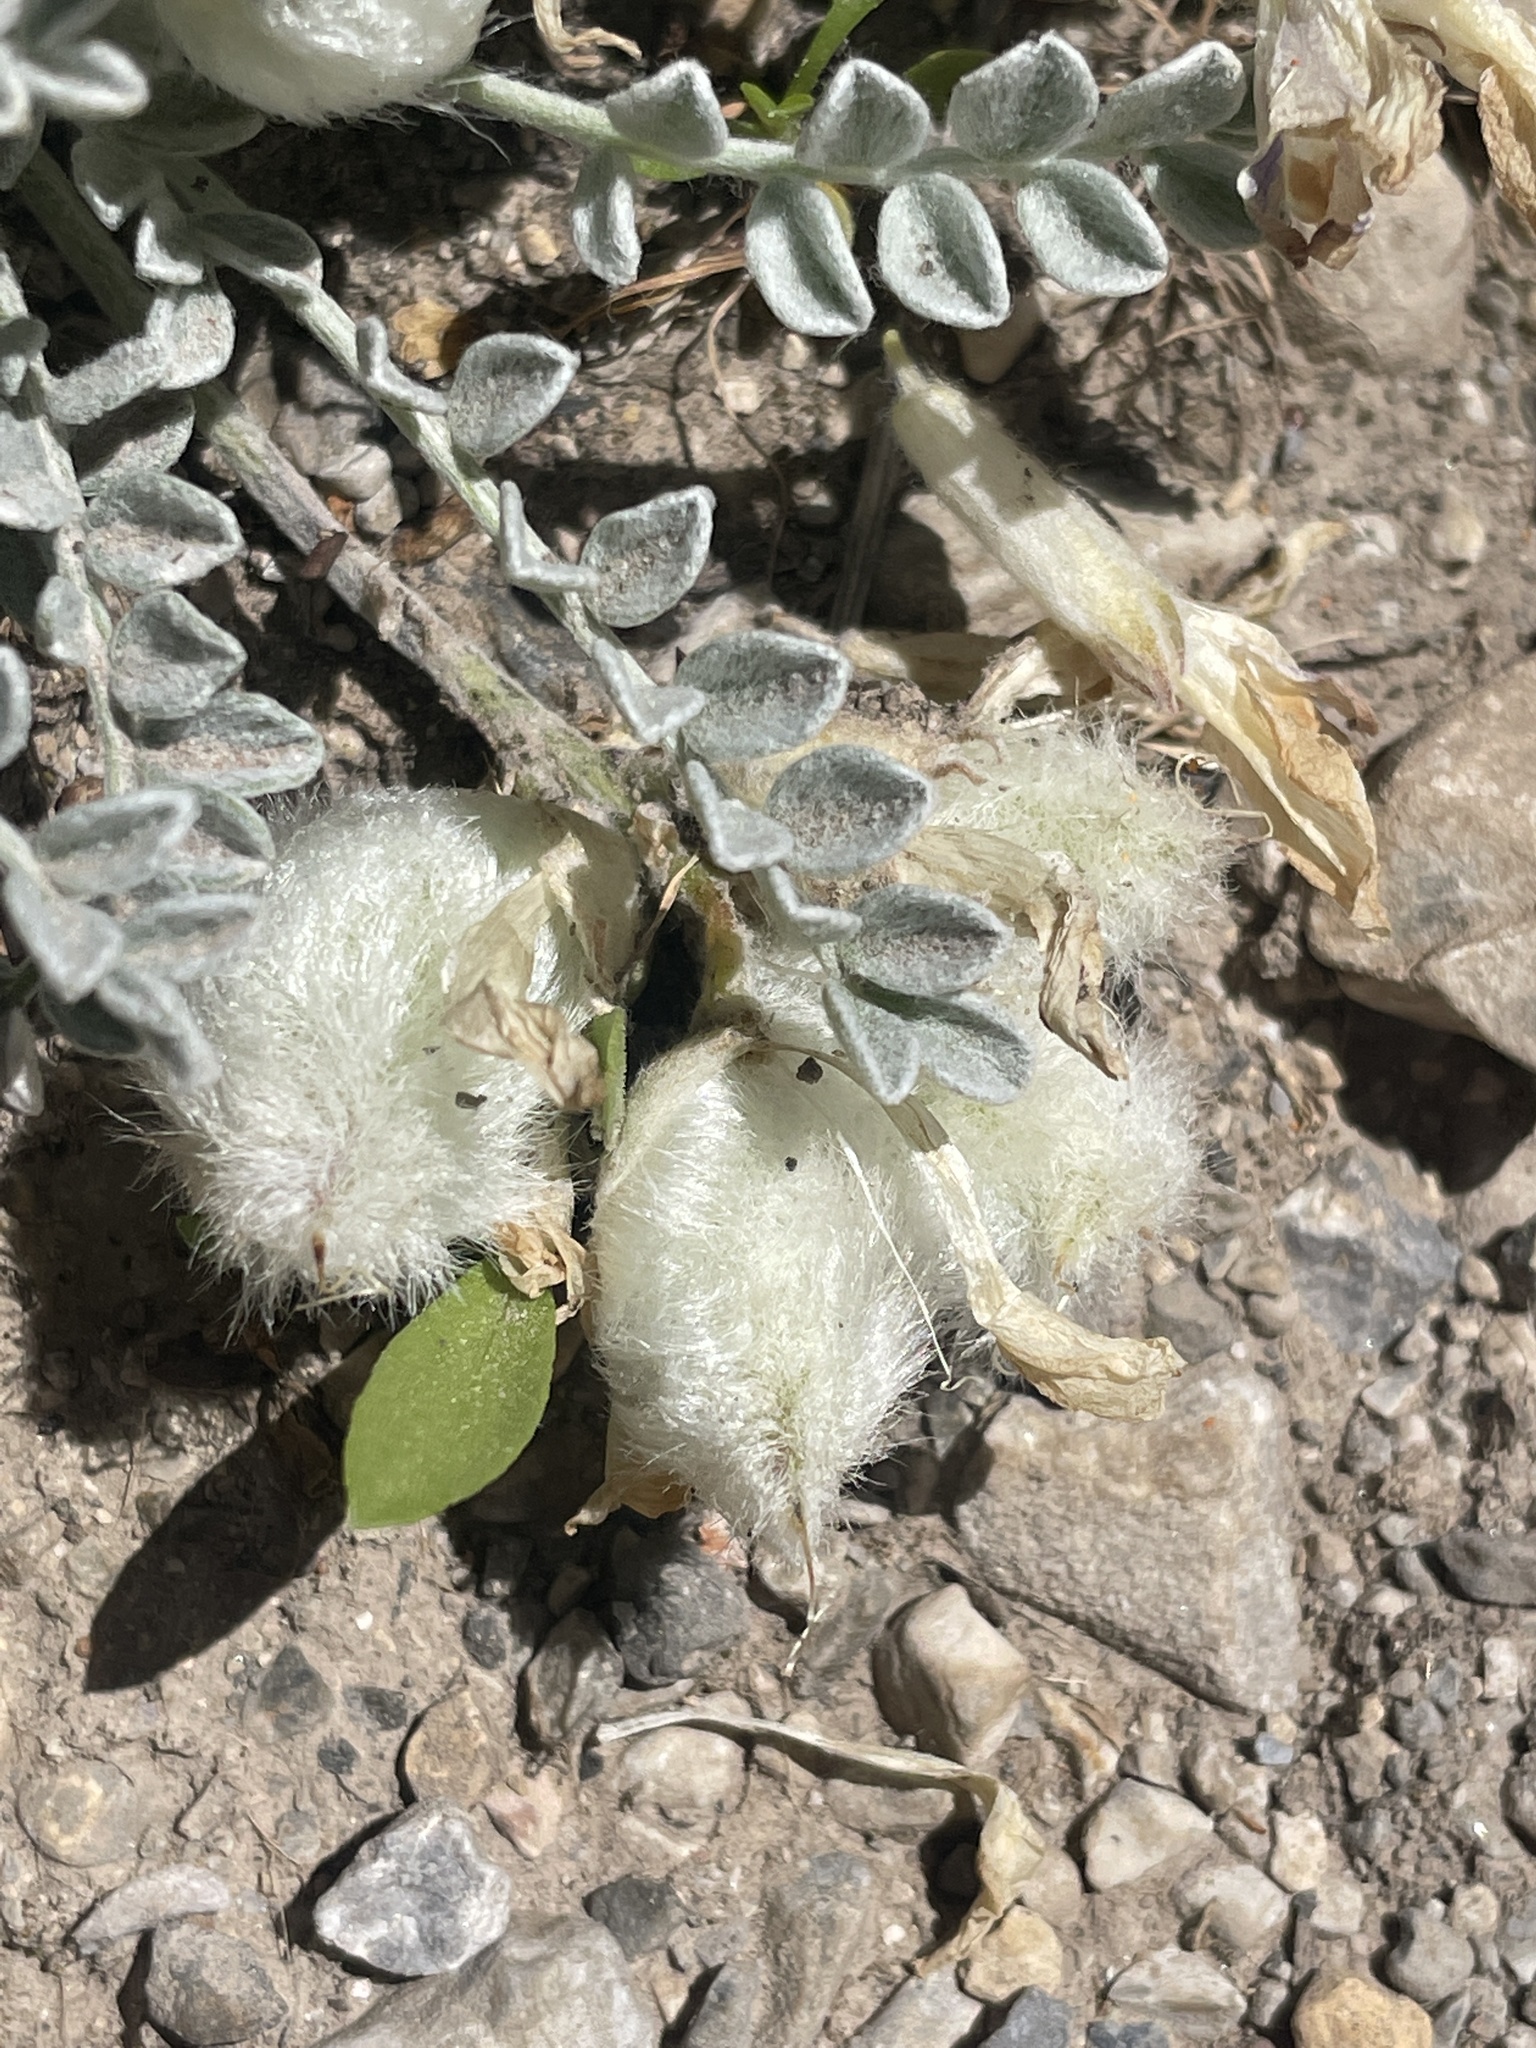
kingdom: Plantae
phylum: Tracheophyta
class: Magnoliopsida
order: Fabales
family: Fabaceae
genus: Astragalus
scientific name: Astragalus utahensis
